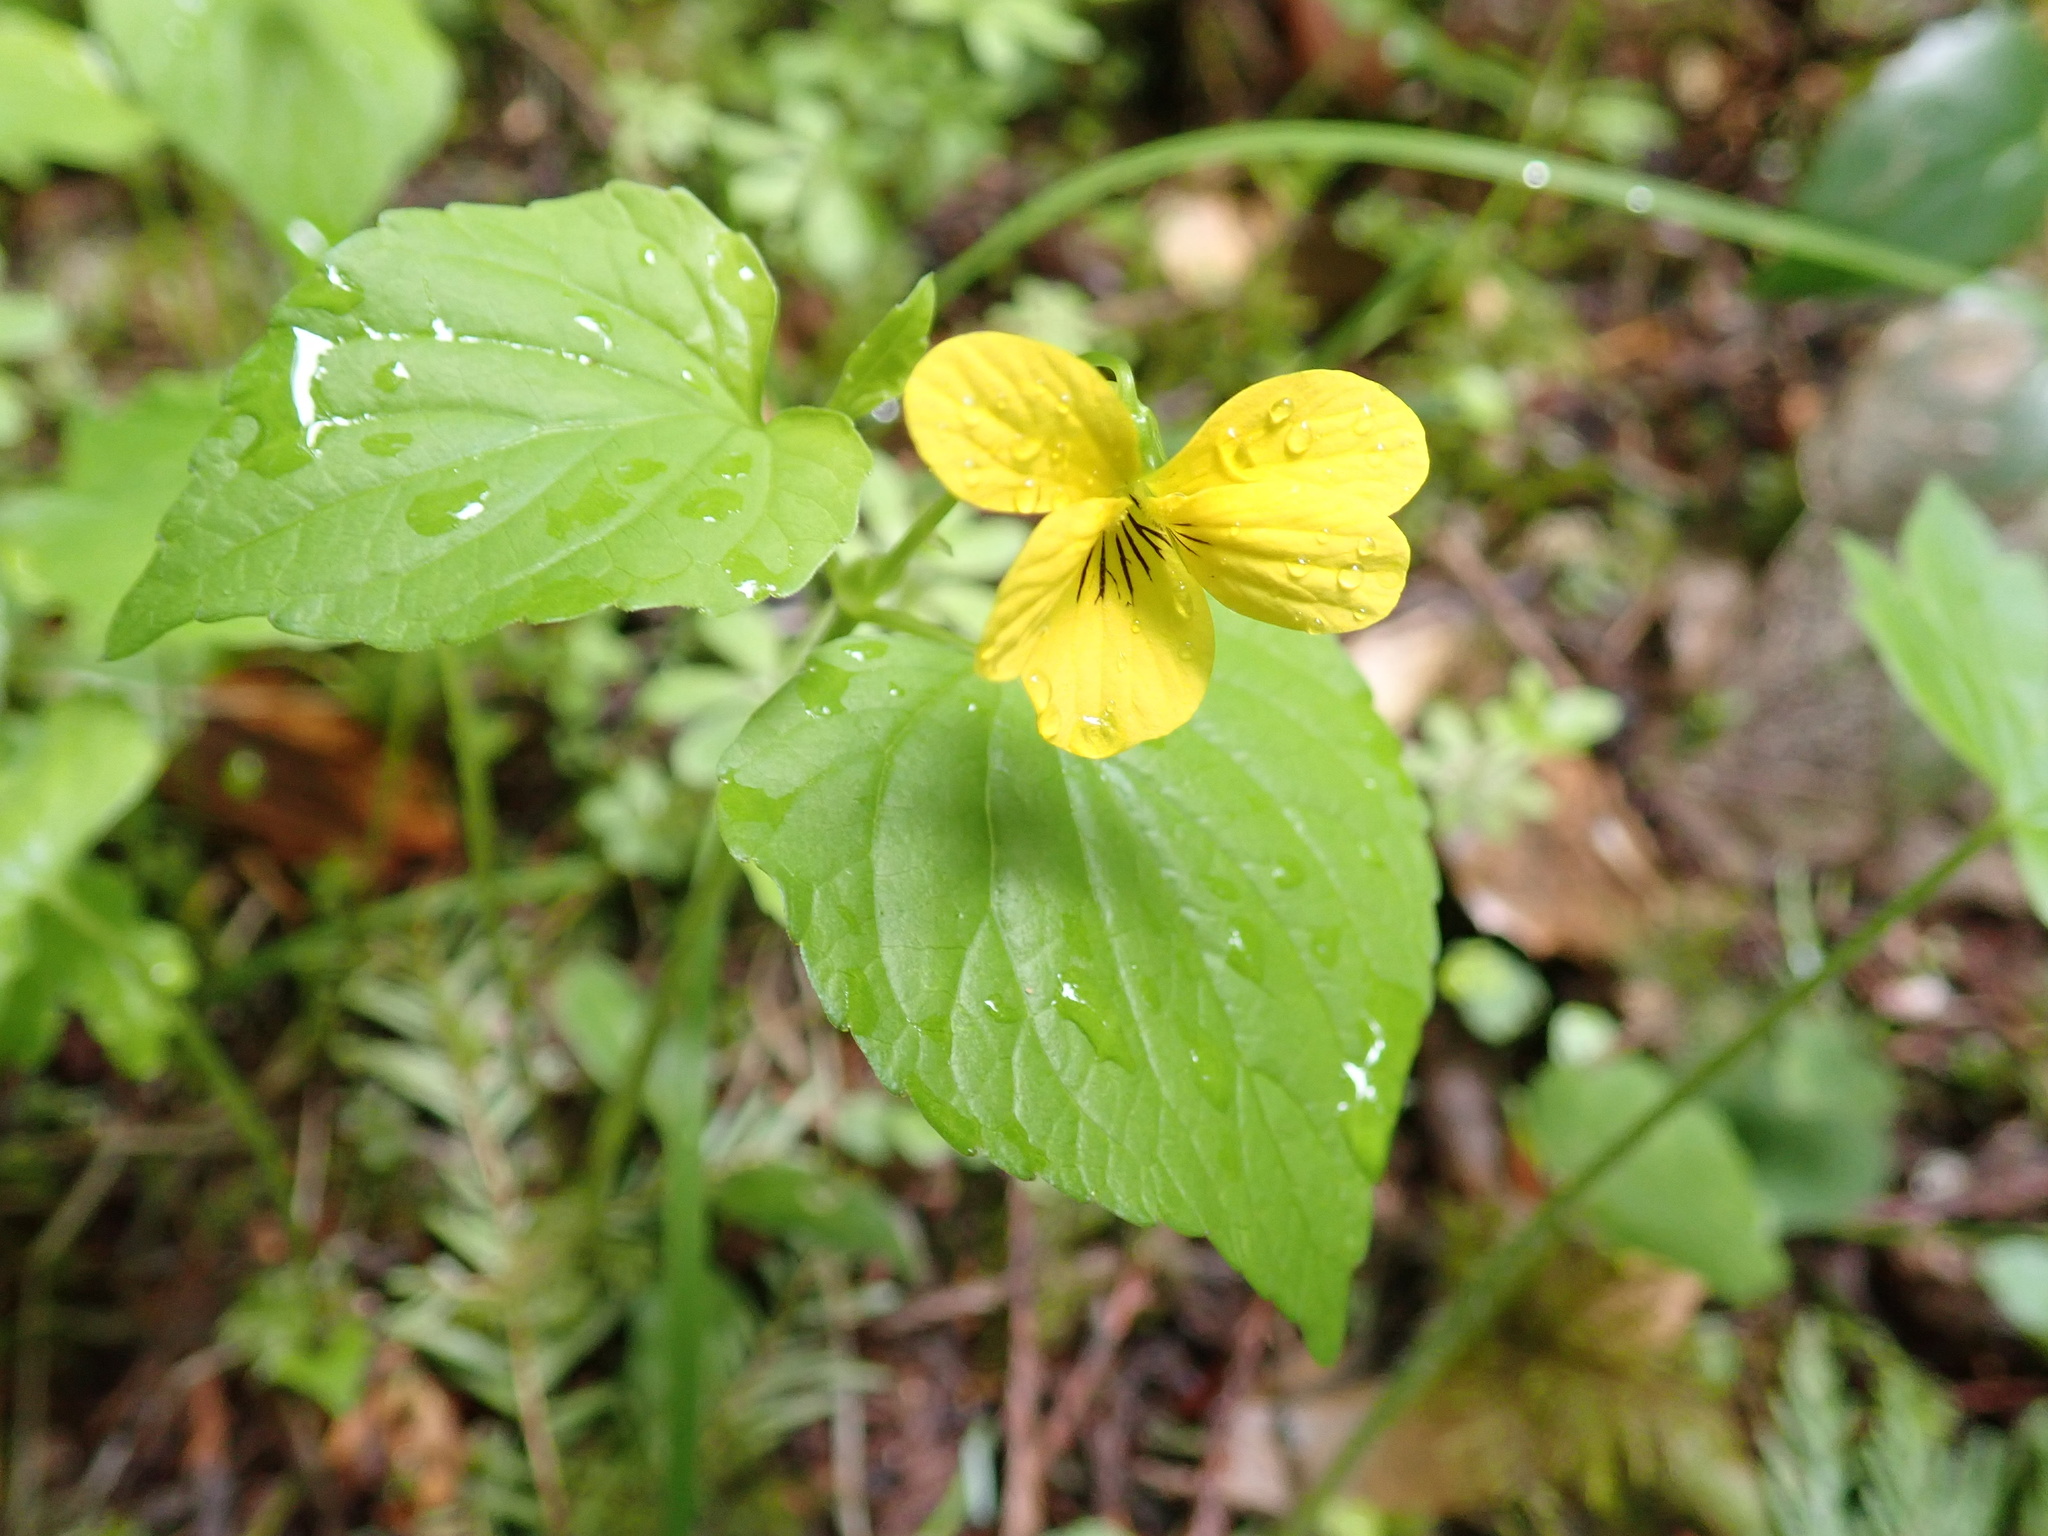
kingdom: Plantae
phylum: Tracheophyta
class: Magnoliopsida
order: Malpighiales
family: Violaceae
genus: Viola
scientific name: Viola glabella
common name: Stream violet
